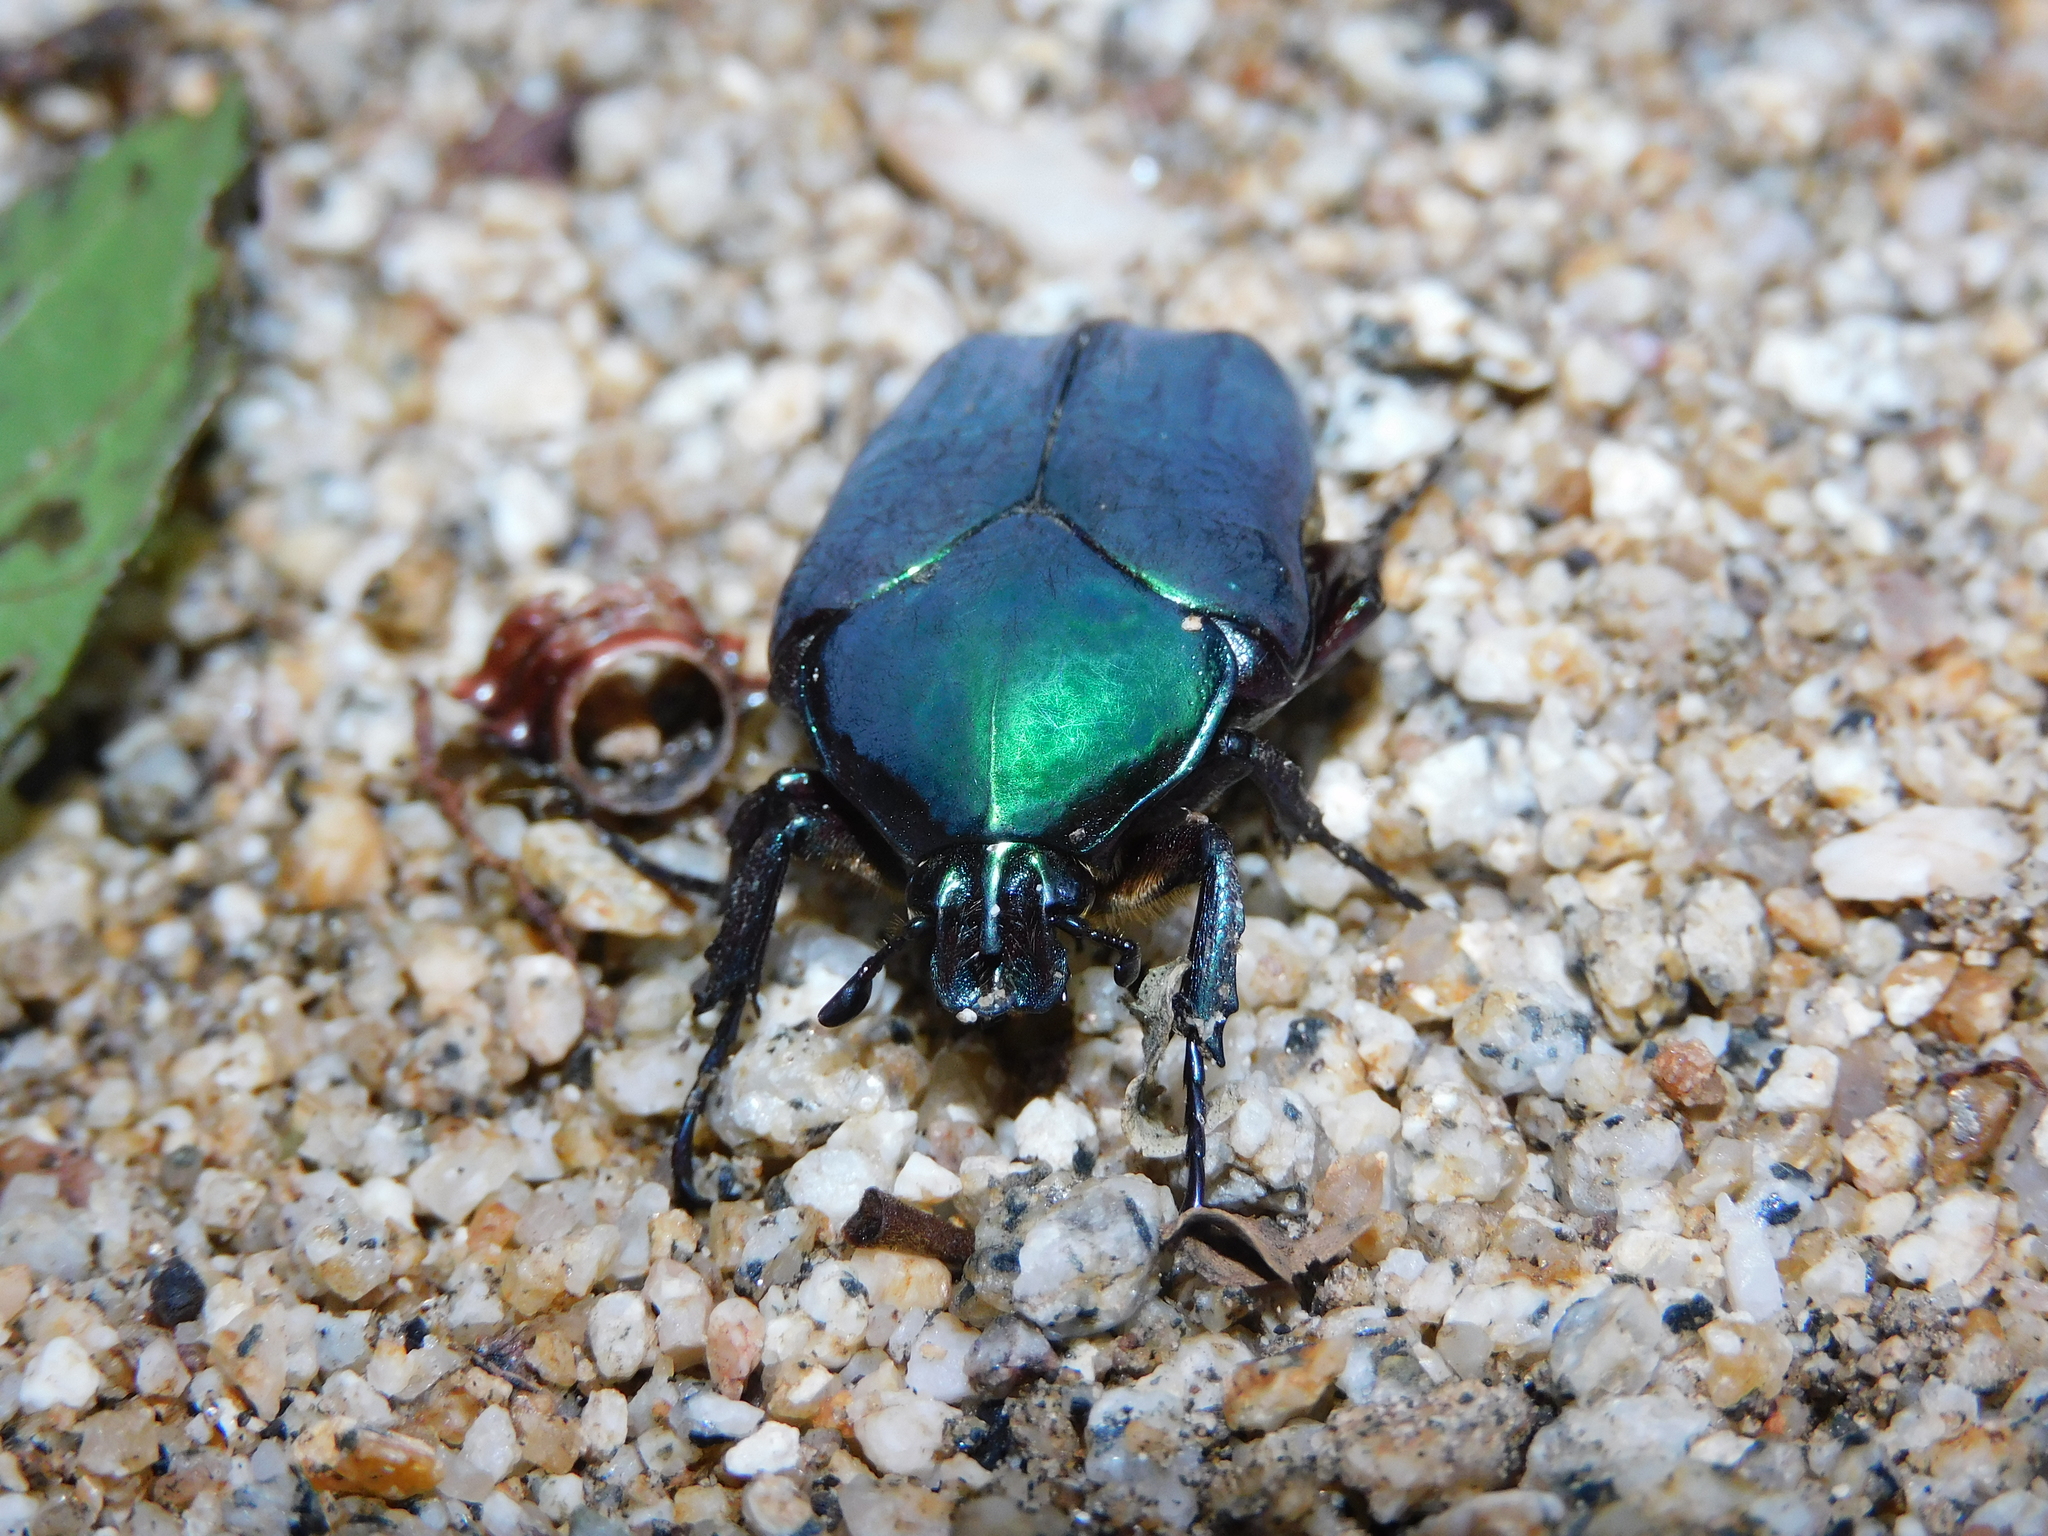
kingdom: Animalia
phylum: Arthropoda
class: Insecta
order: Coleoptera
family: Scarabaeidae
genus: Cotinis
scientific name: Cotinis barthelemyi
